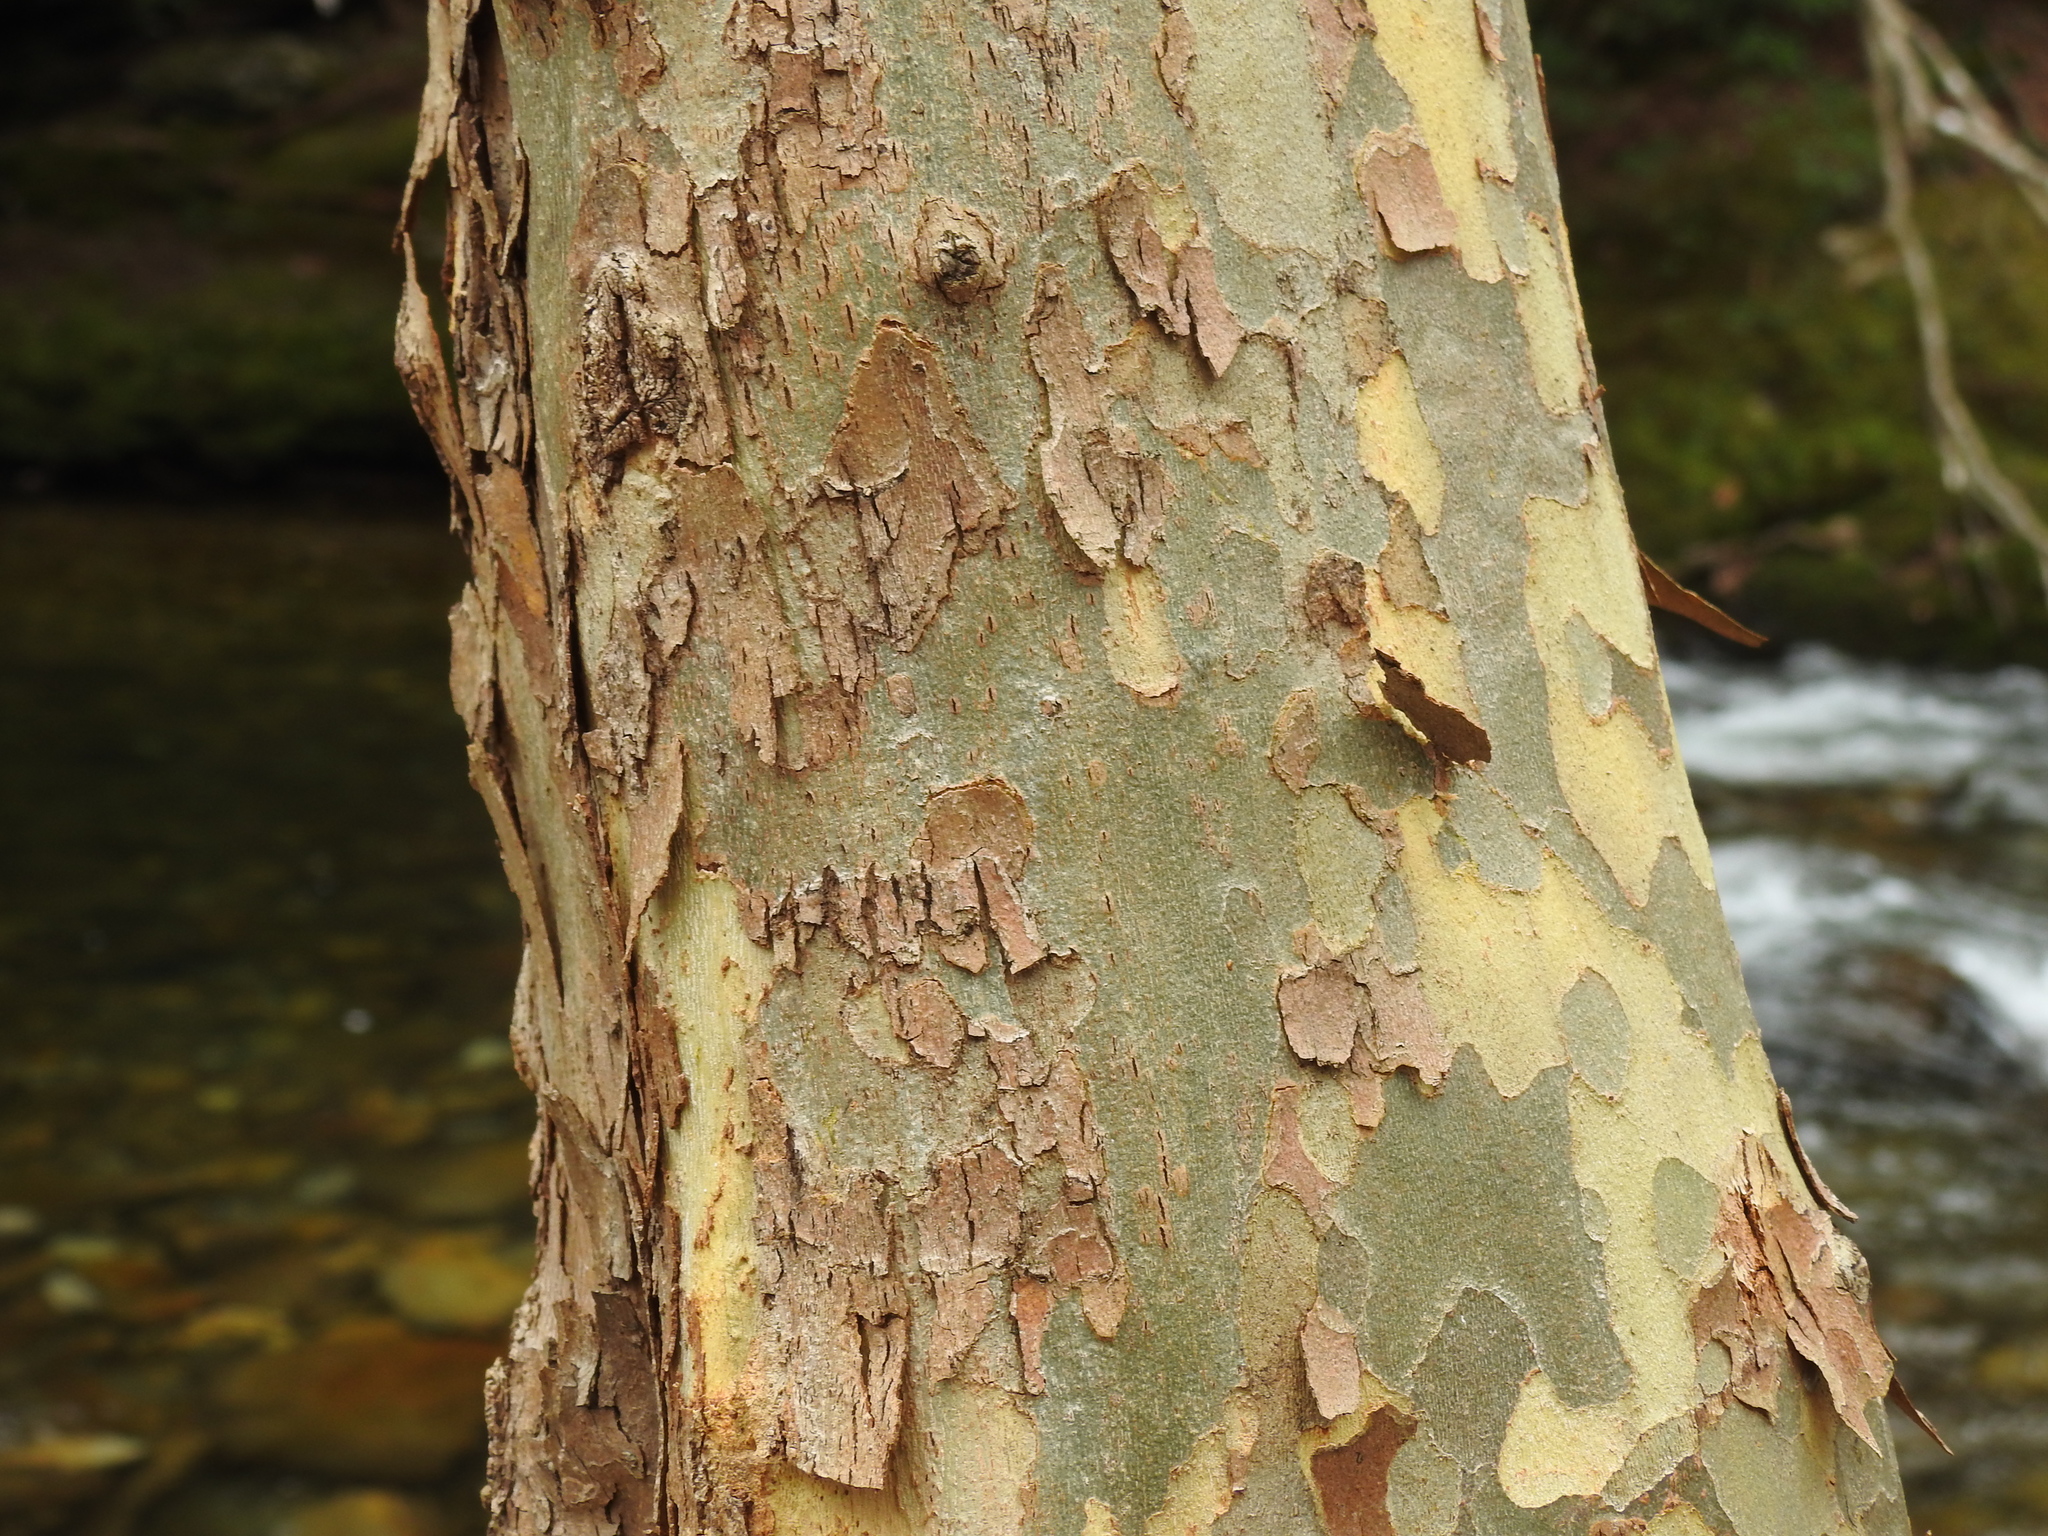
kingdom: Plantae
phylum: Tracheophyta
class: Magnoliopsida
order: Proteales
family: Platanaceae
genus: Platanus
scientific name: Platanus occidentalis
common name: American sycamore
